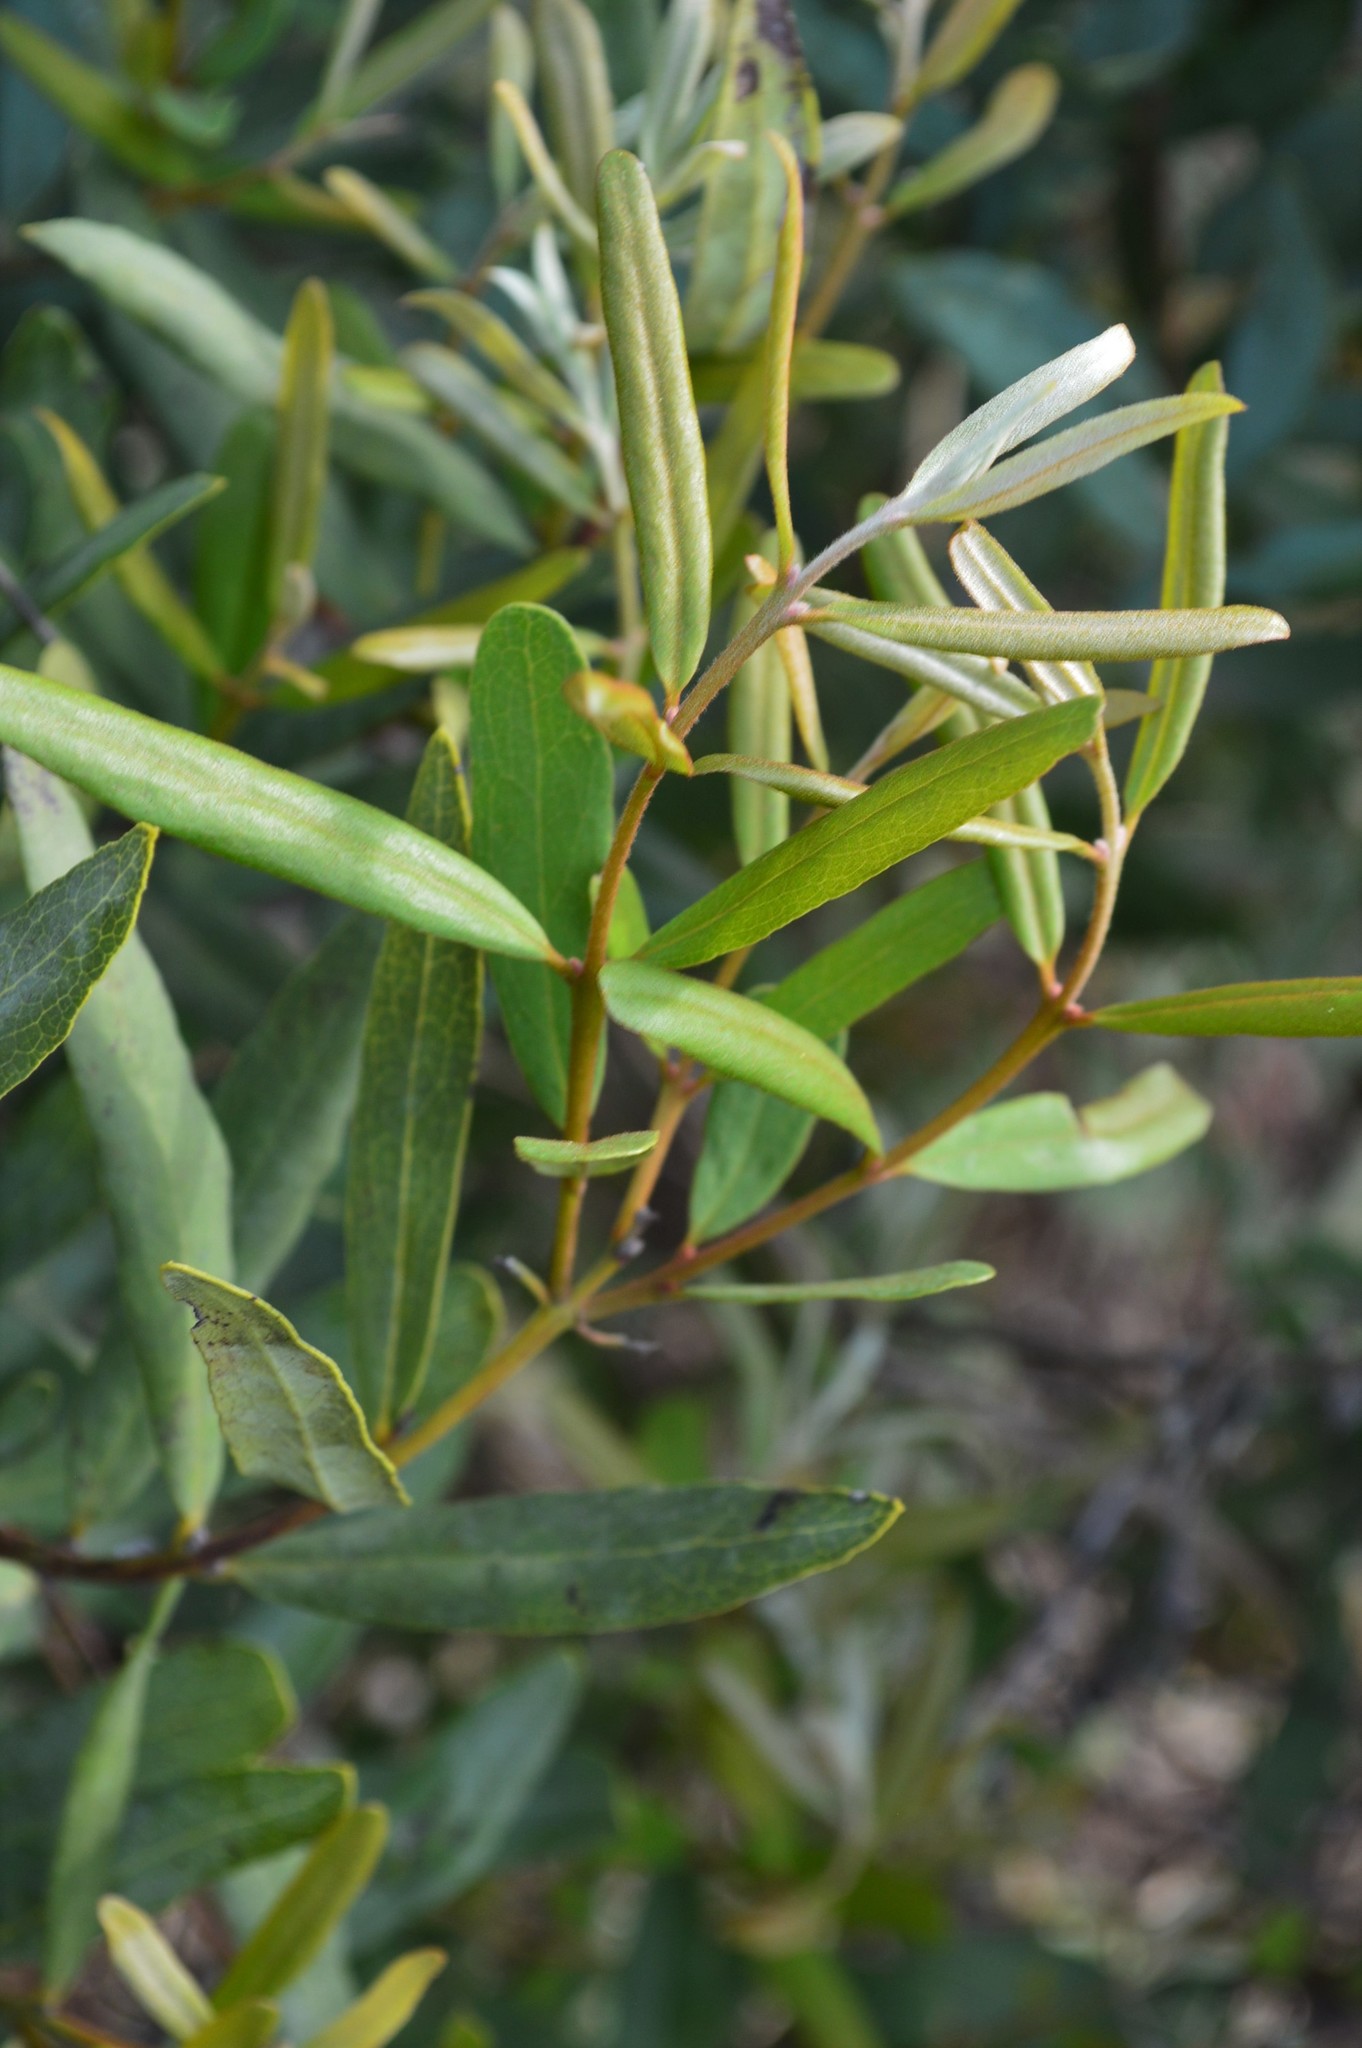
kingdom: Plantae
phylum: Tracheophyta
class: Magnoliopsida
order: Ericales
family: Ebenaceae
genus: Euclea
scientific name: Euclea crispa
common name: Blue guarri
